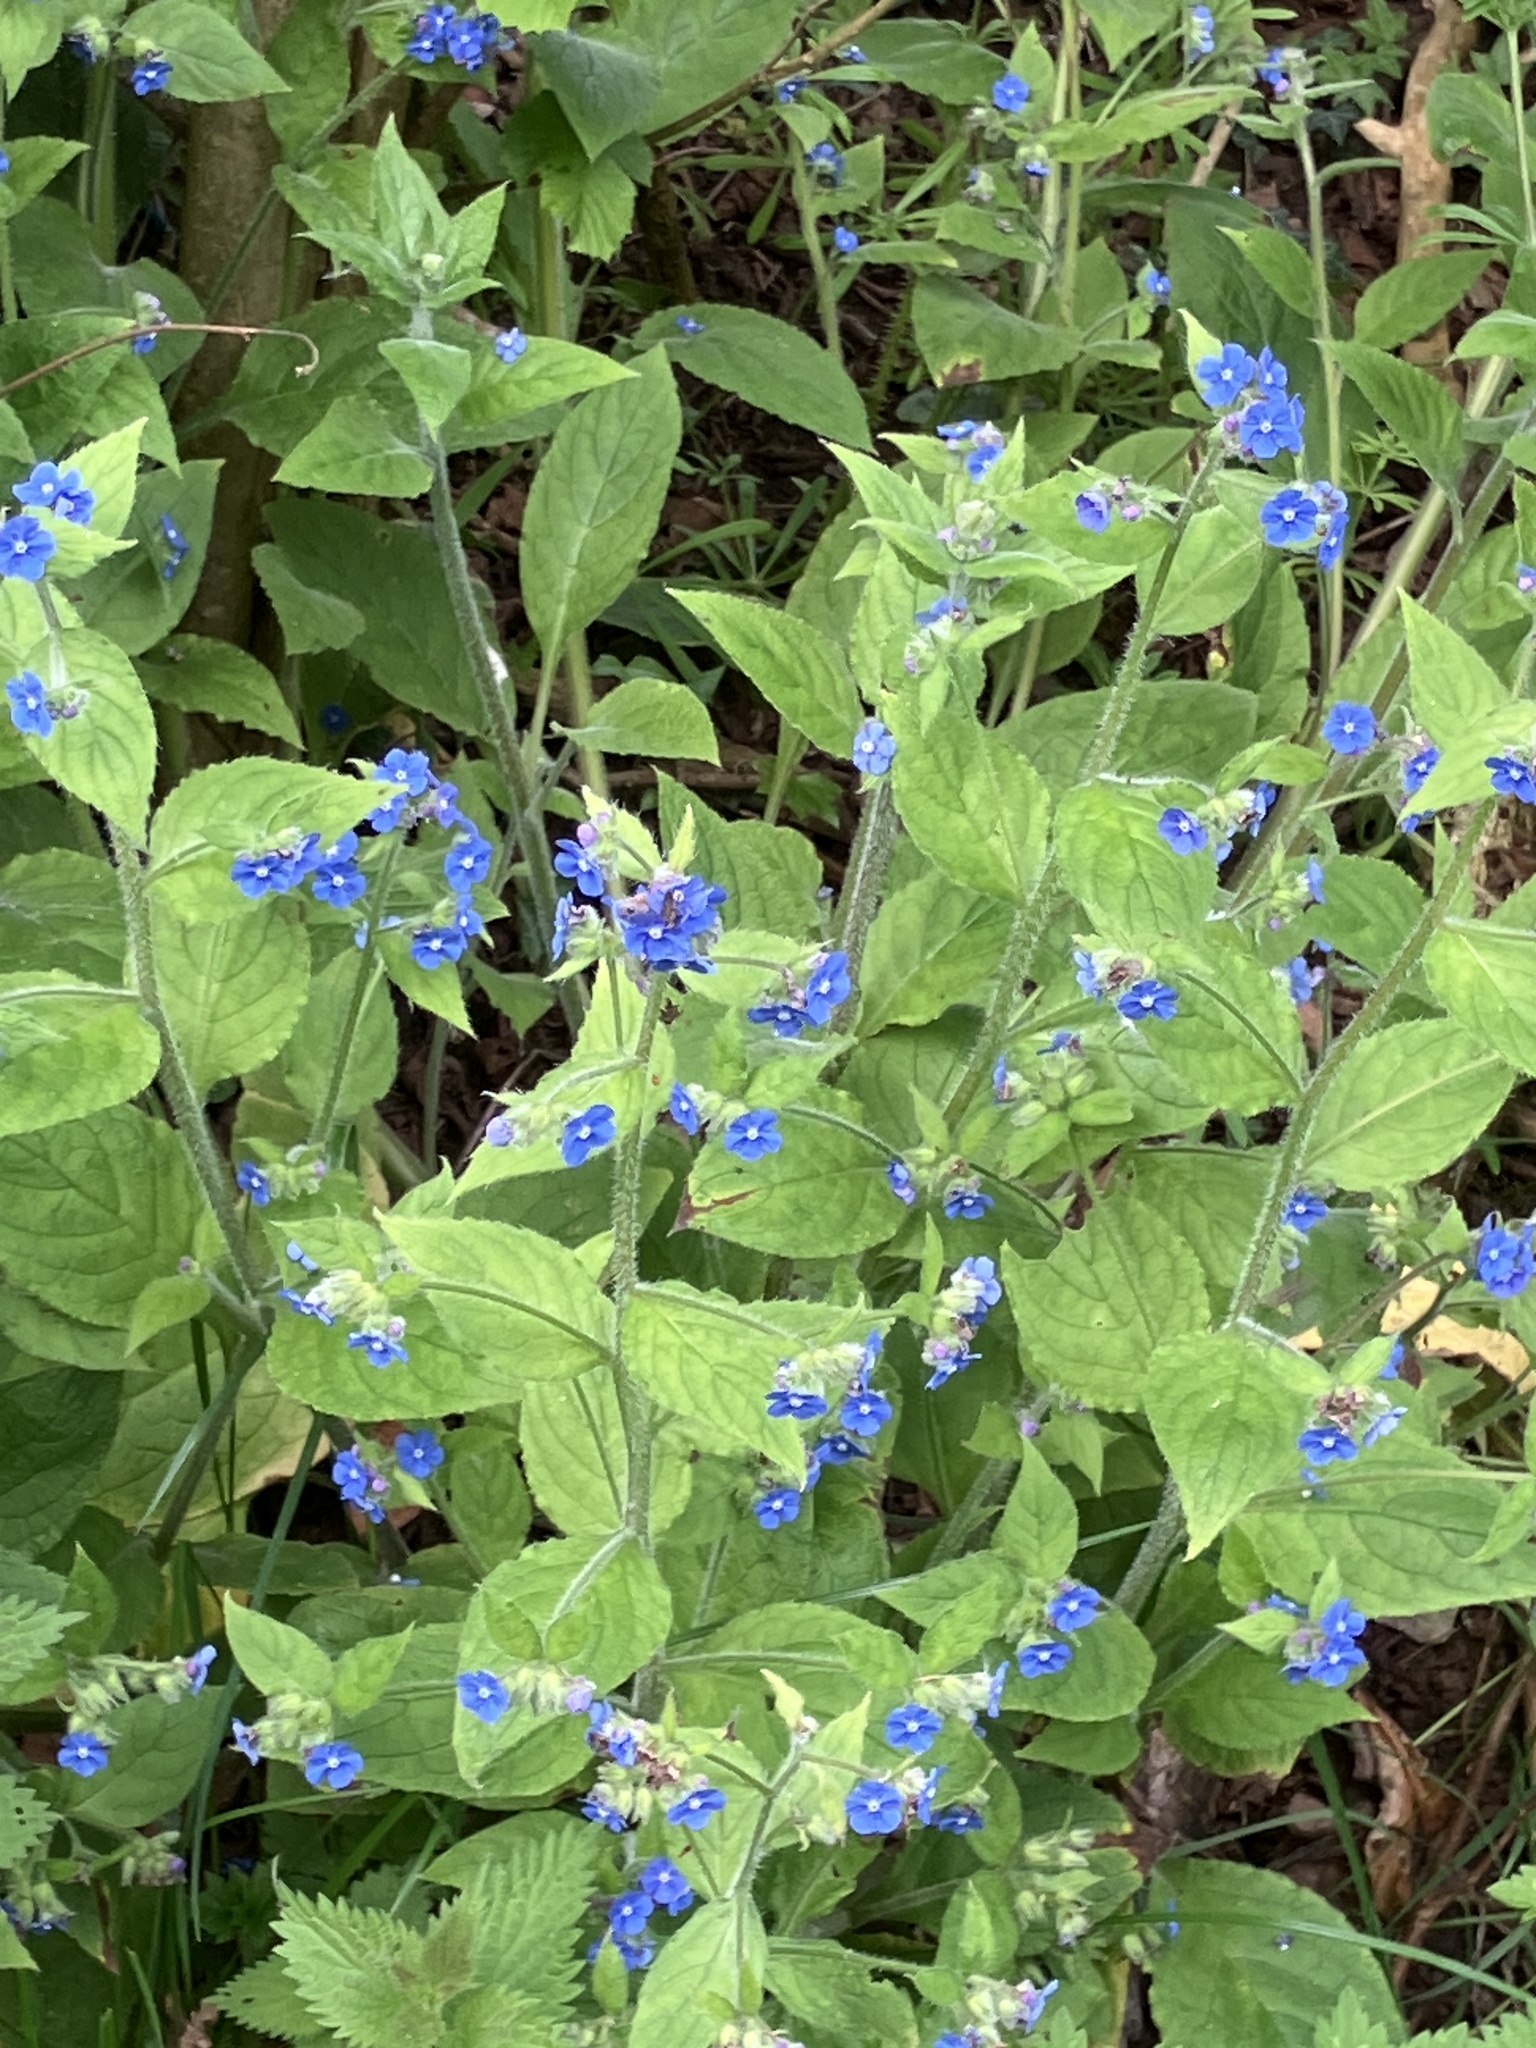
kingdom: Plantae
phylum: Tracheophyta
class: Magnoliopsida
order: Boraginales
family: Boraginaceae
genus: Pentaglottis
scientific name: Pentaglottis sempervirens
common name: Green alkanet
